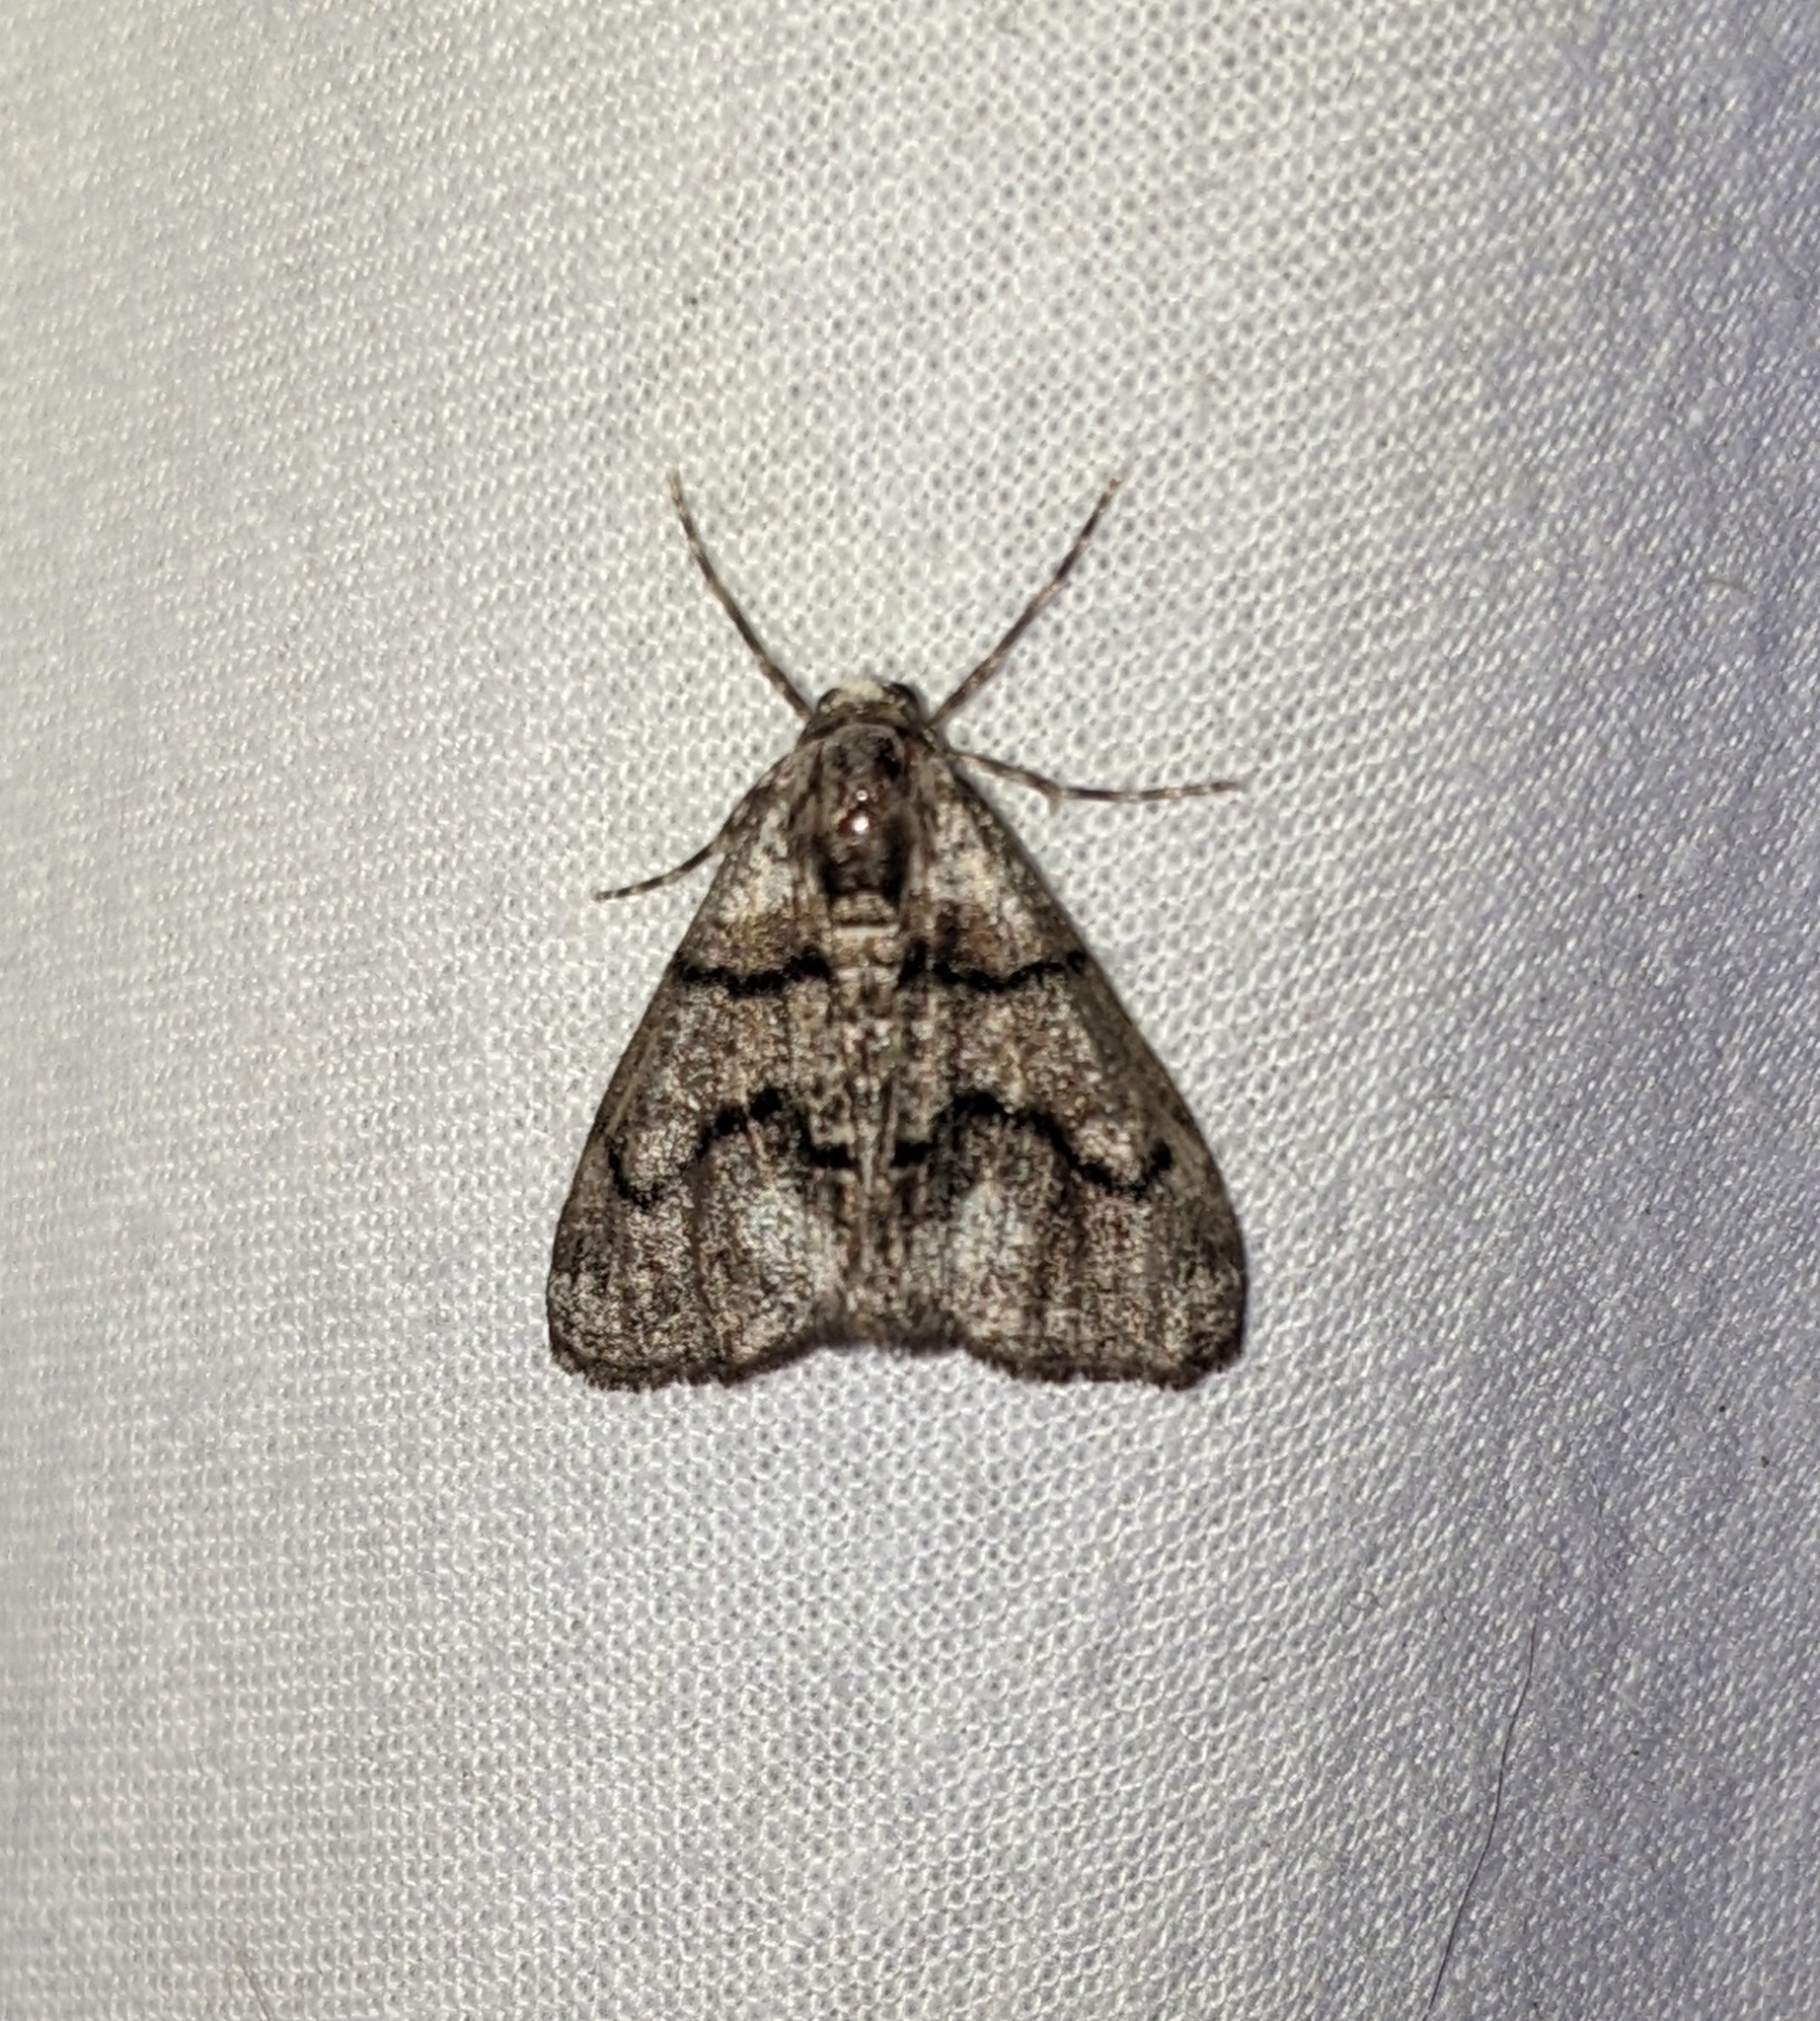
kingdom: Animalia
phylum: Arthropoda
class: Insecta
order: Lepidoptera
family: Geometridae
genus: Gabriola
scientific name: Gabriola dyari
